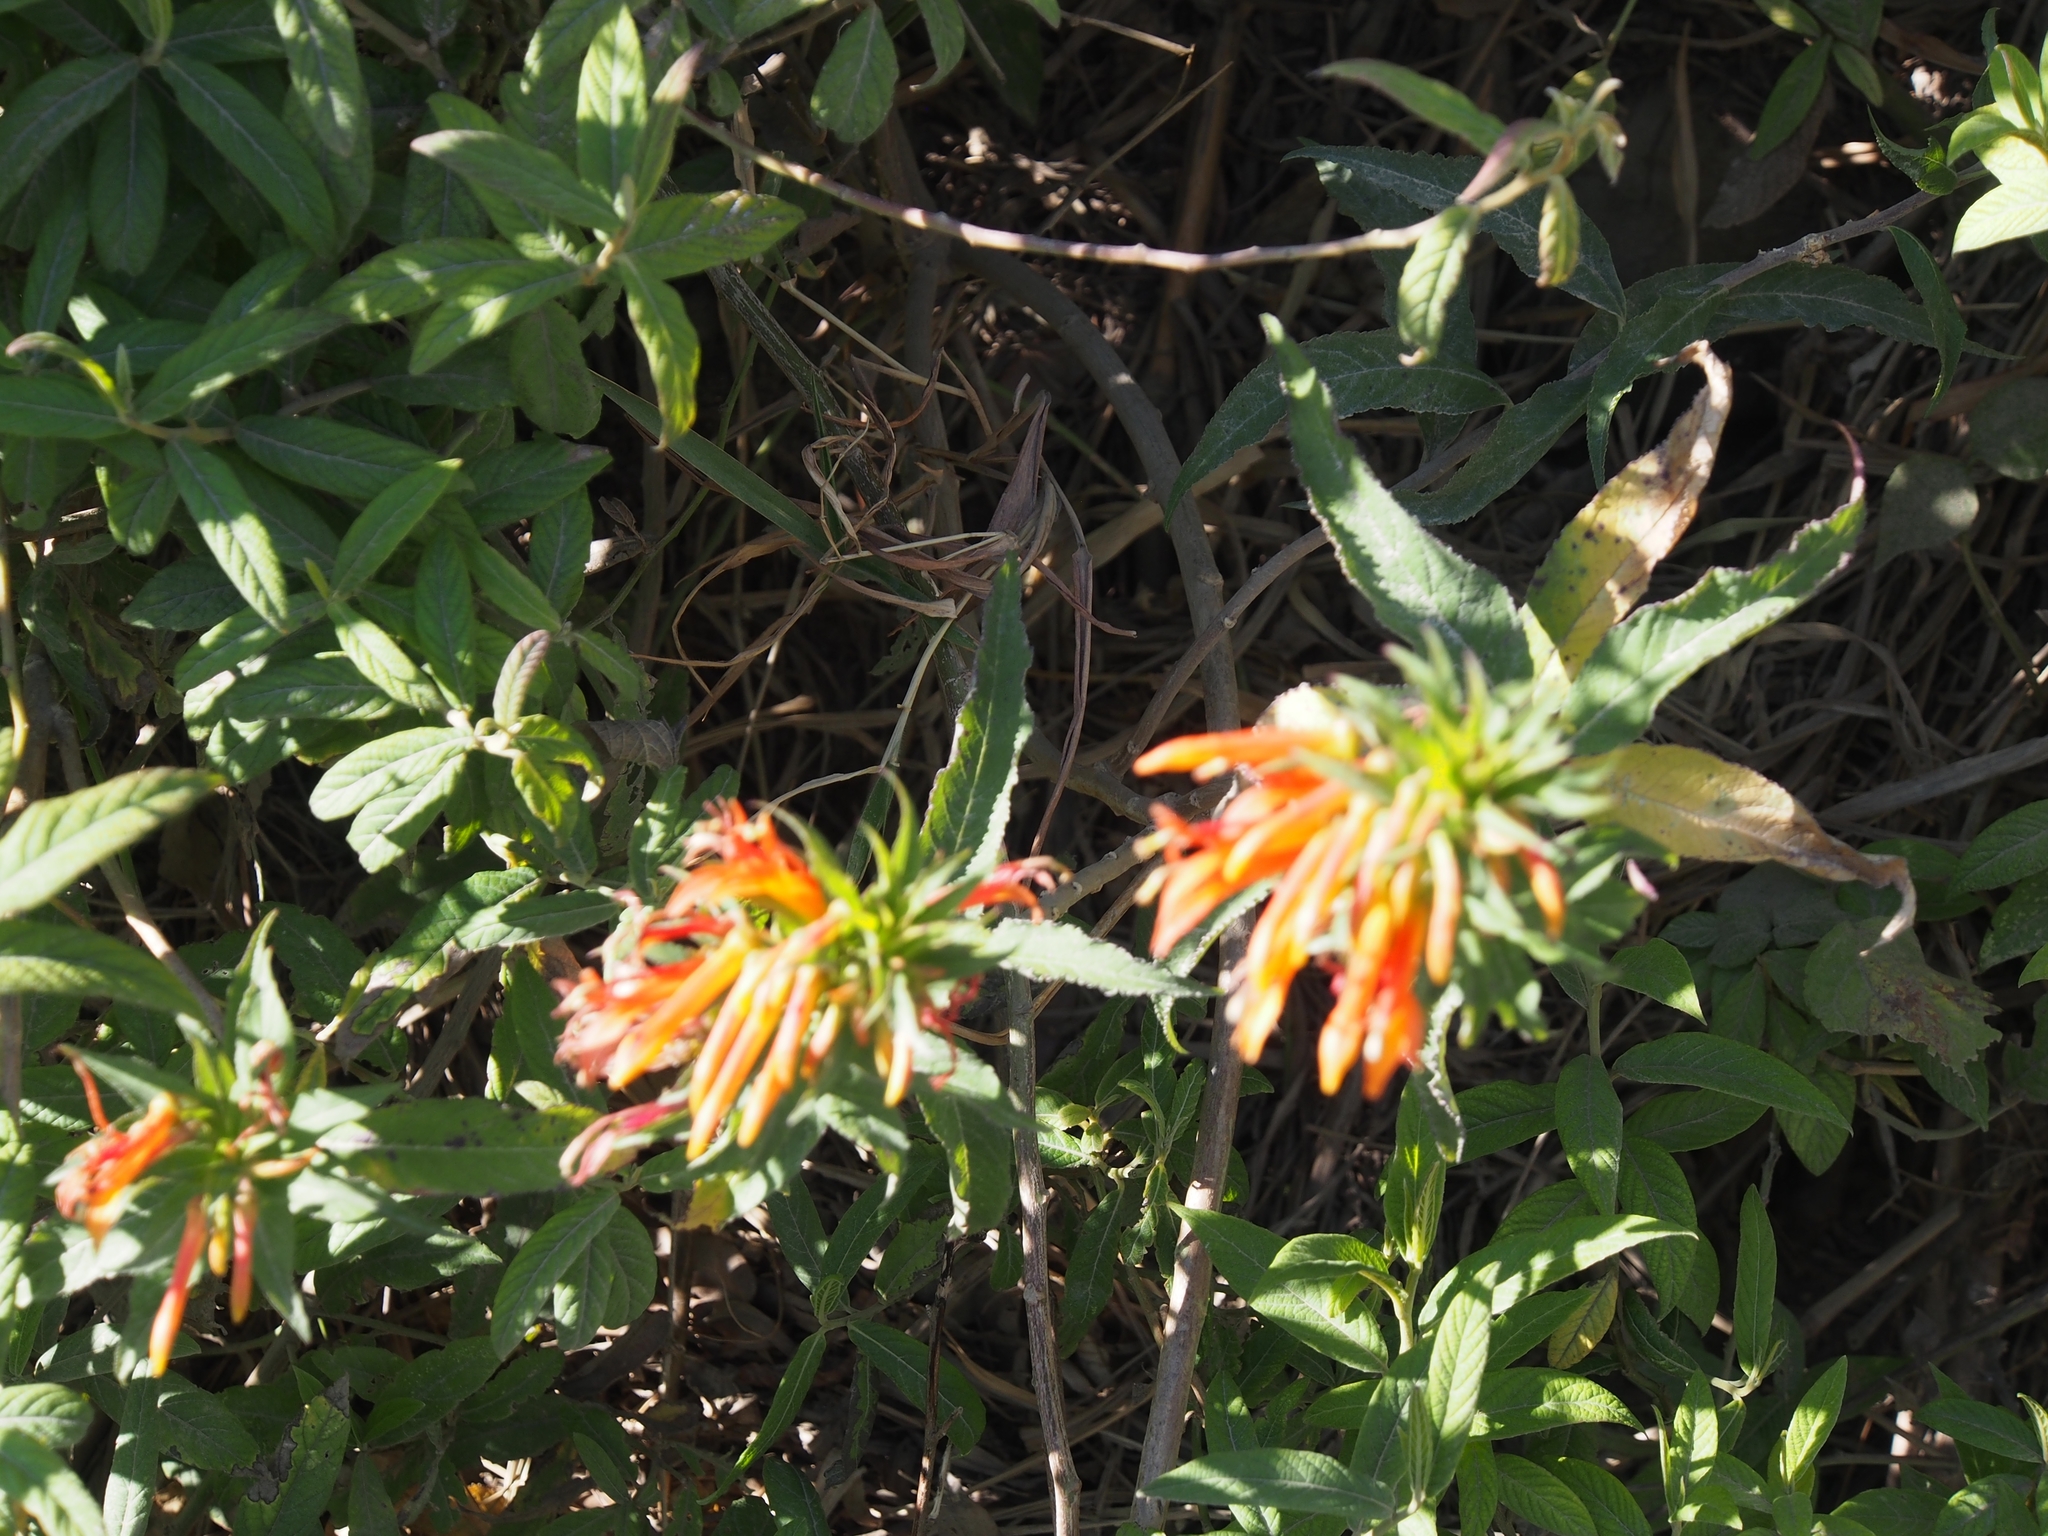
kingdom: Plantae
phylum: Tracheophyta
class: Magnoliopsida
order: Asterales
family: Campanulaceae
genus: Lobelia
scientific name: Lobelia laxiflora
